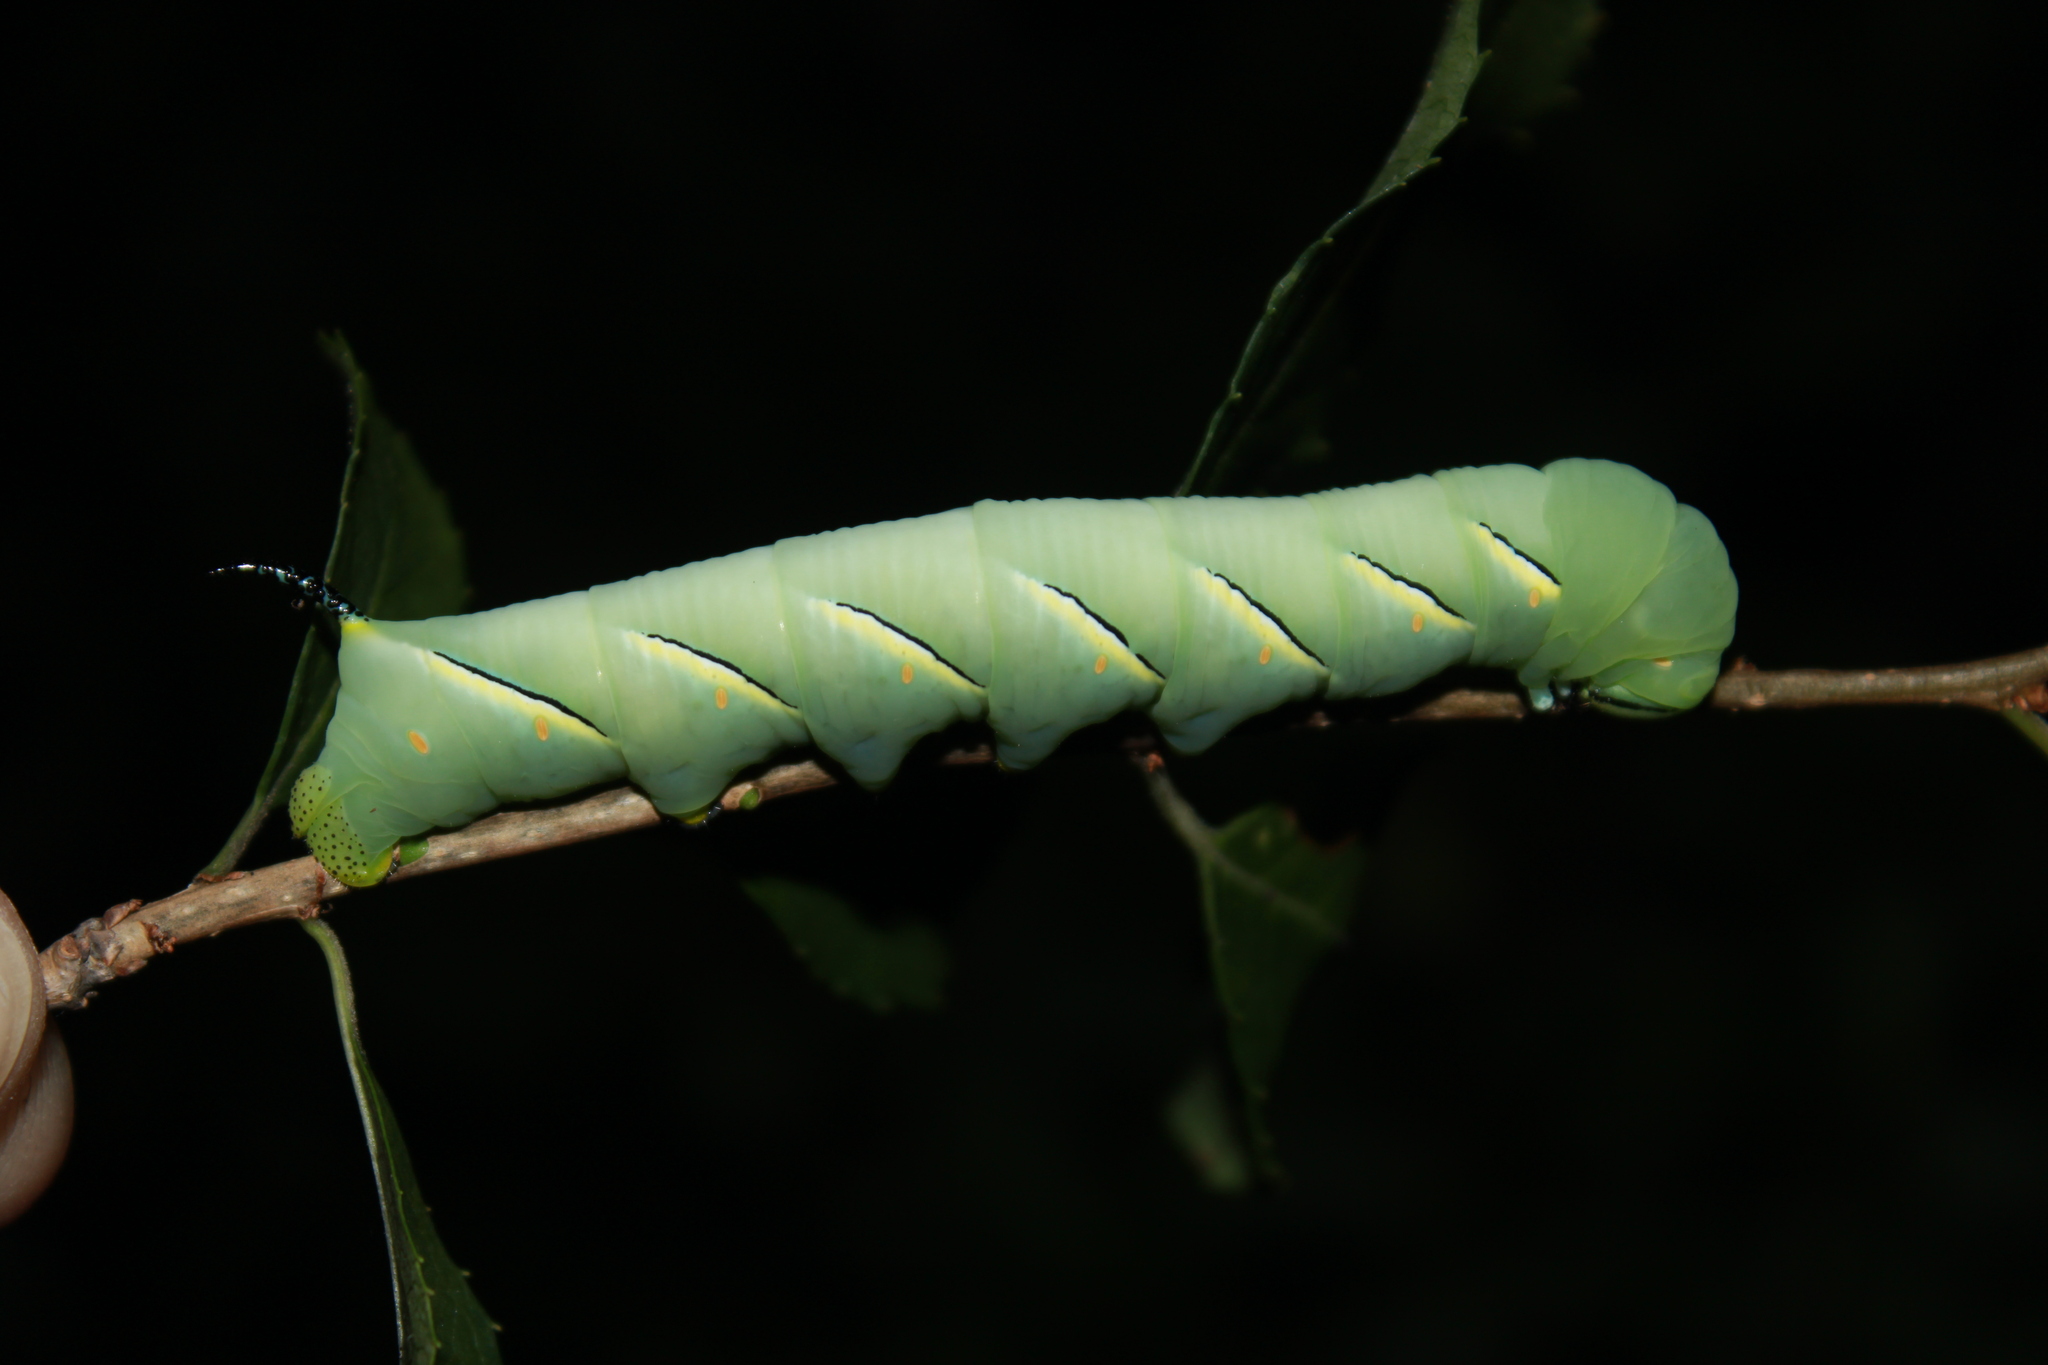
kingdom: Animalia
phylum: Arthropoda
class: Insecta
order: Lepidoptera
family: Sphingidae
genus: Sphinx
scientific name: Sphinx kalmiae
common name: Laurel sphinx
